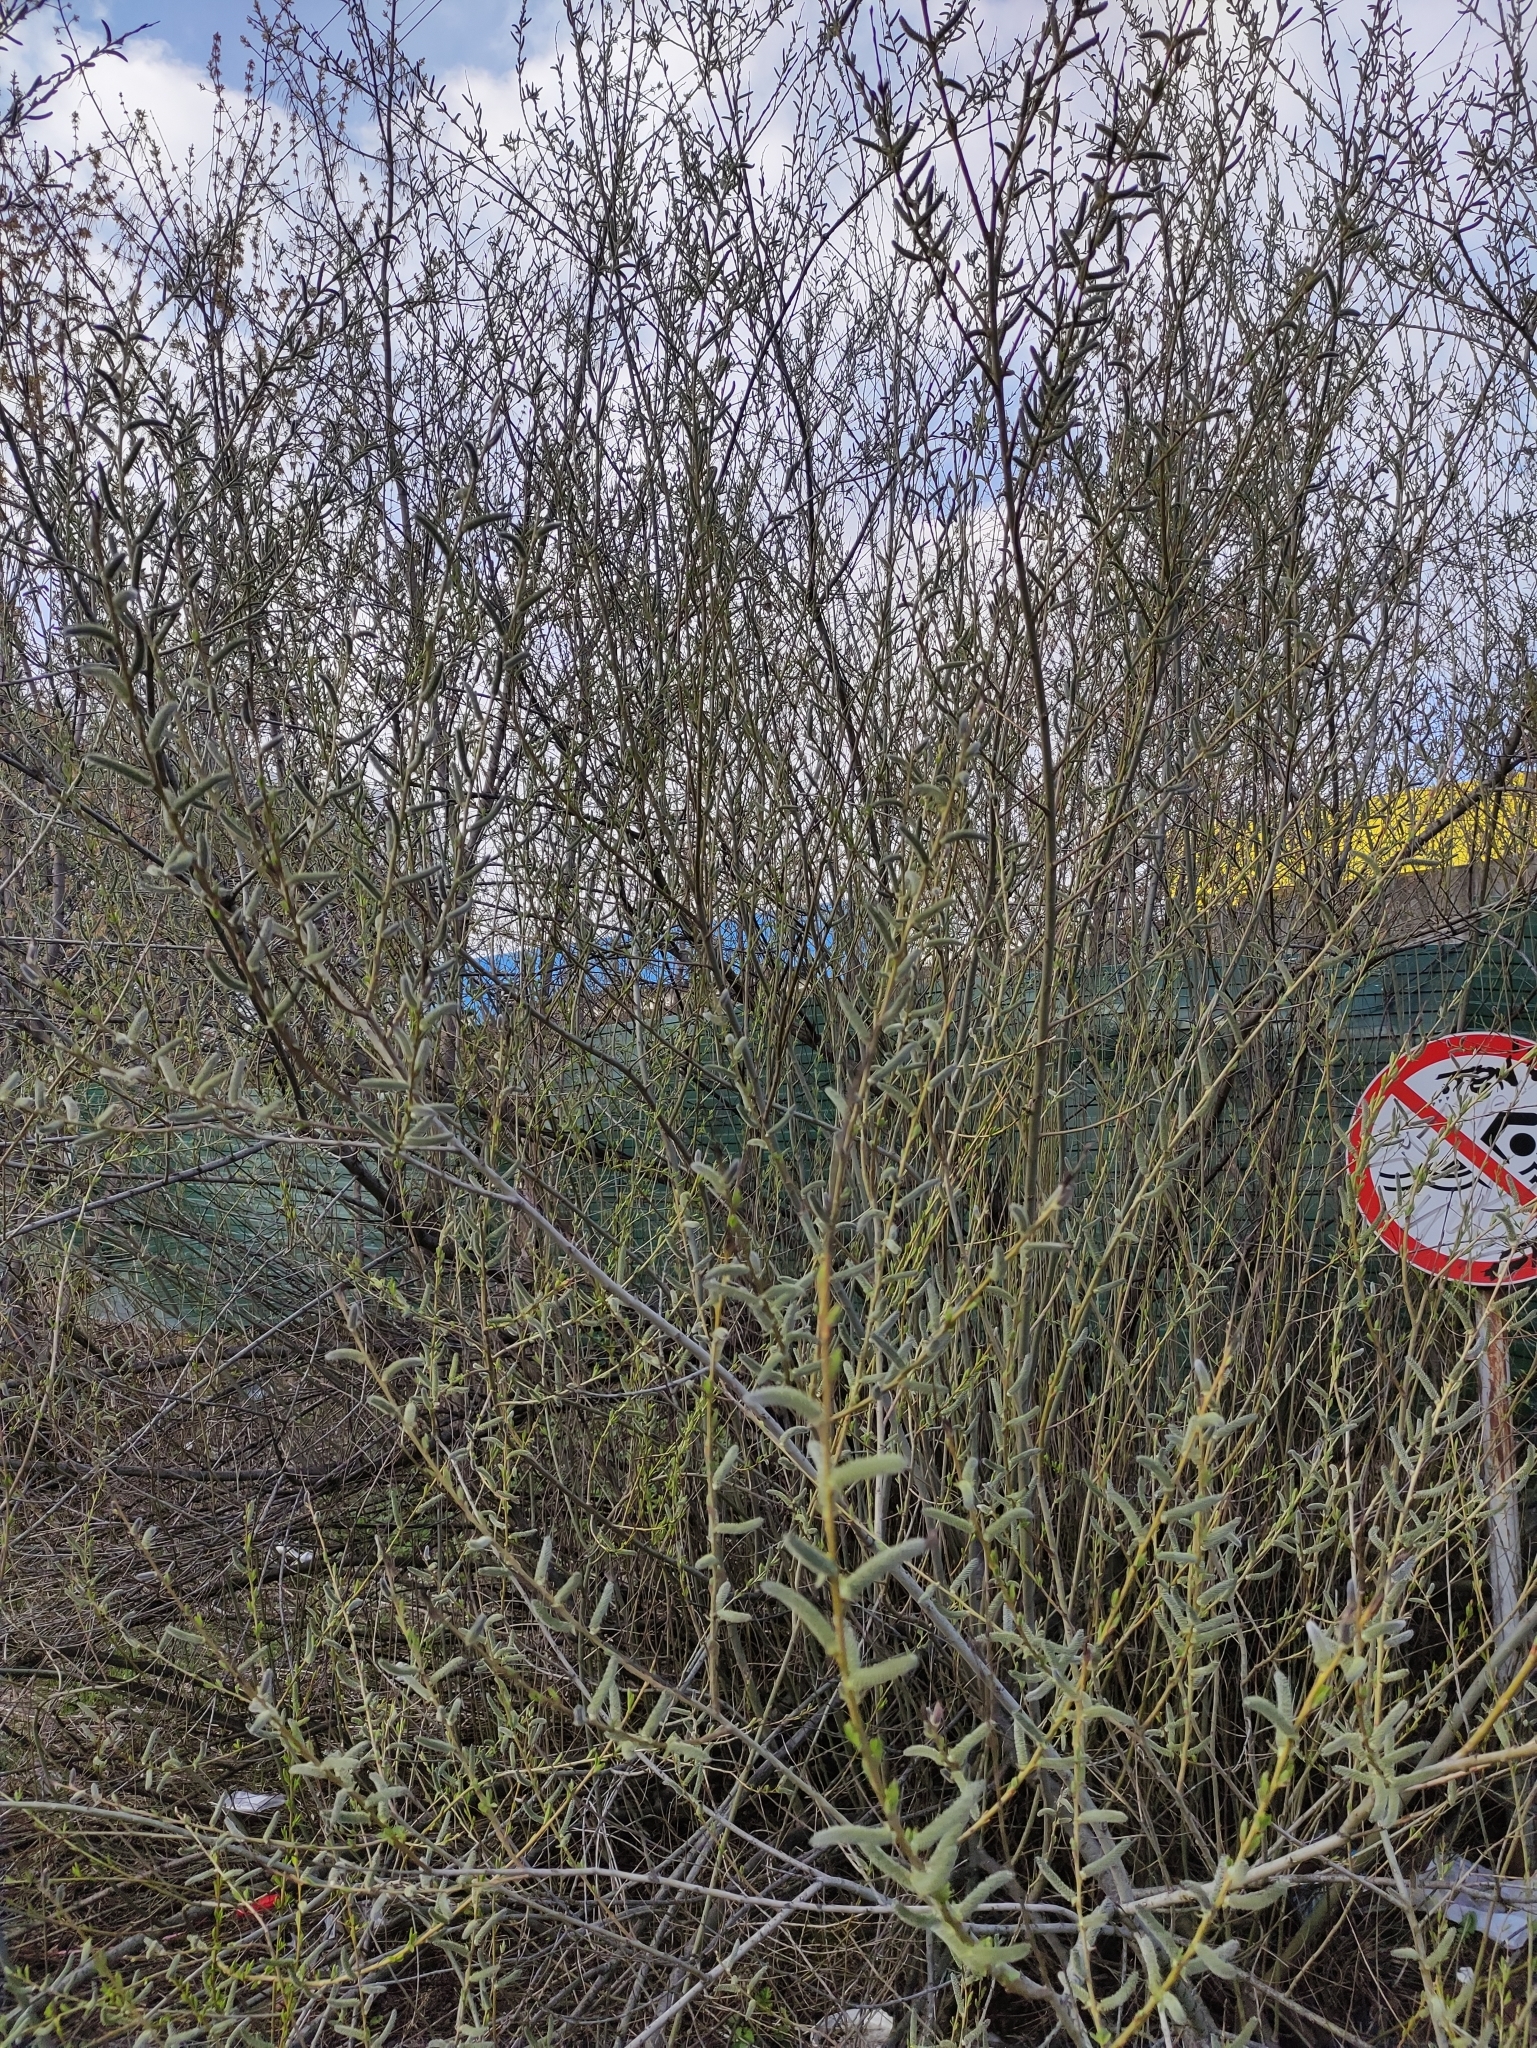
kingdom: Plantae
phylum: Tracheophyta
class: Magnoliopsida
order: Malpighiales
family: Salicaceae
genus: Salix
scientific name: Salix purpurea
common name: Purple willow
